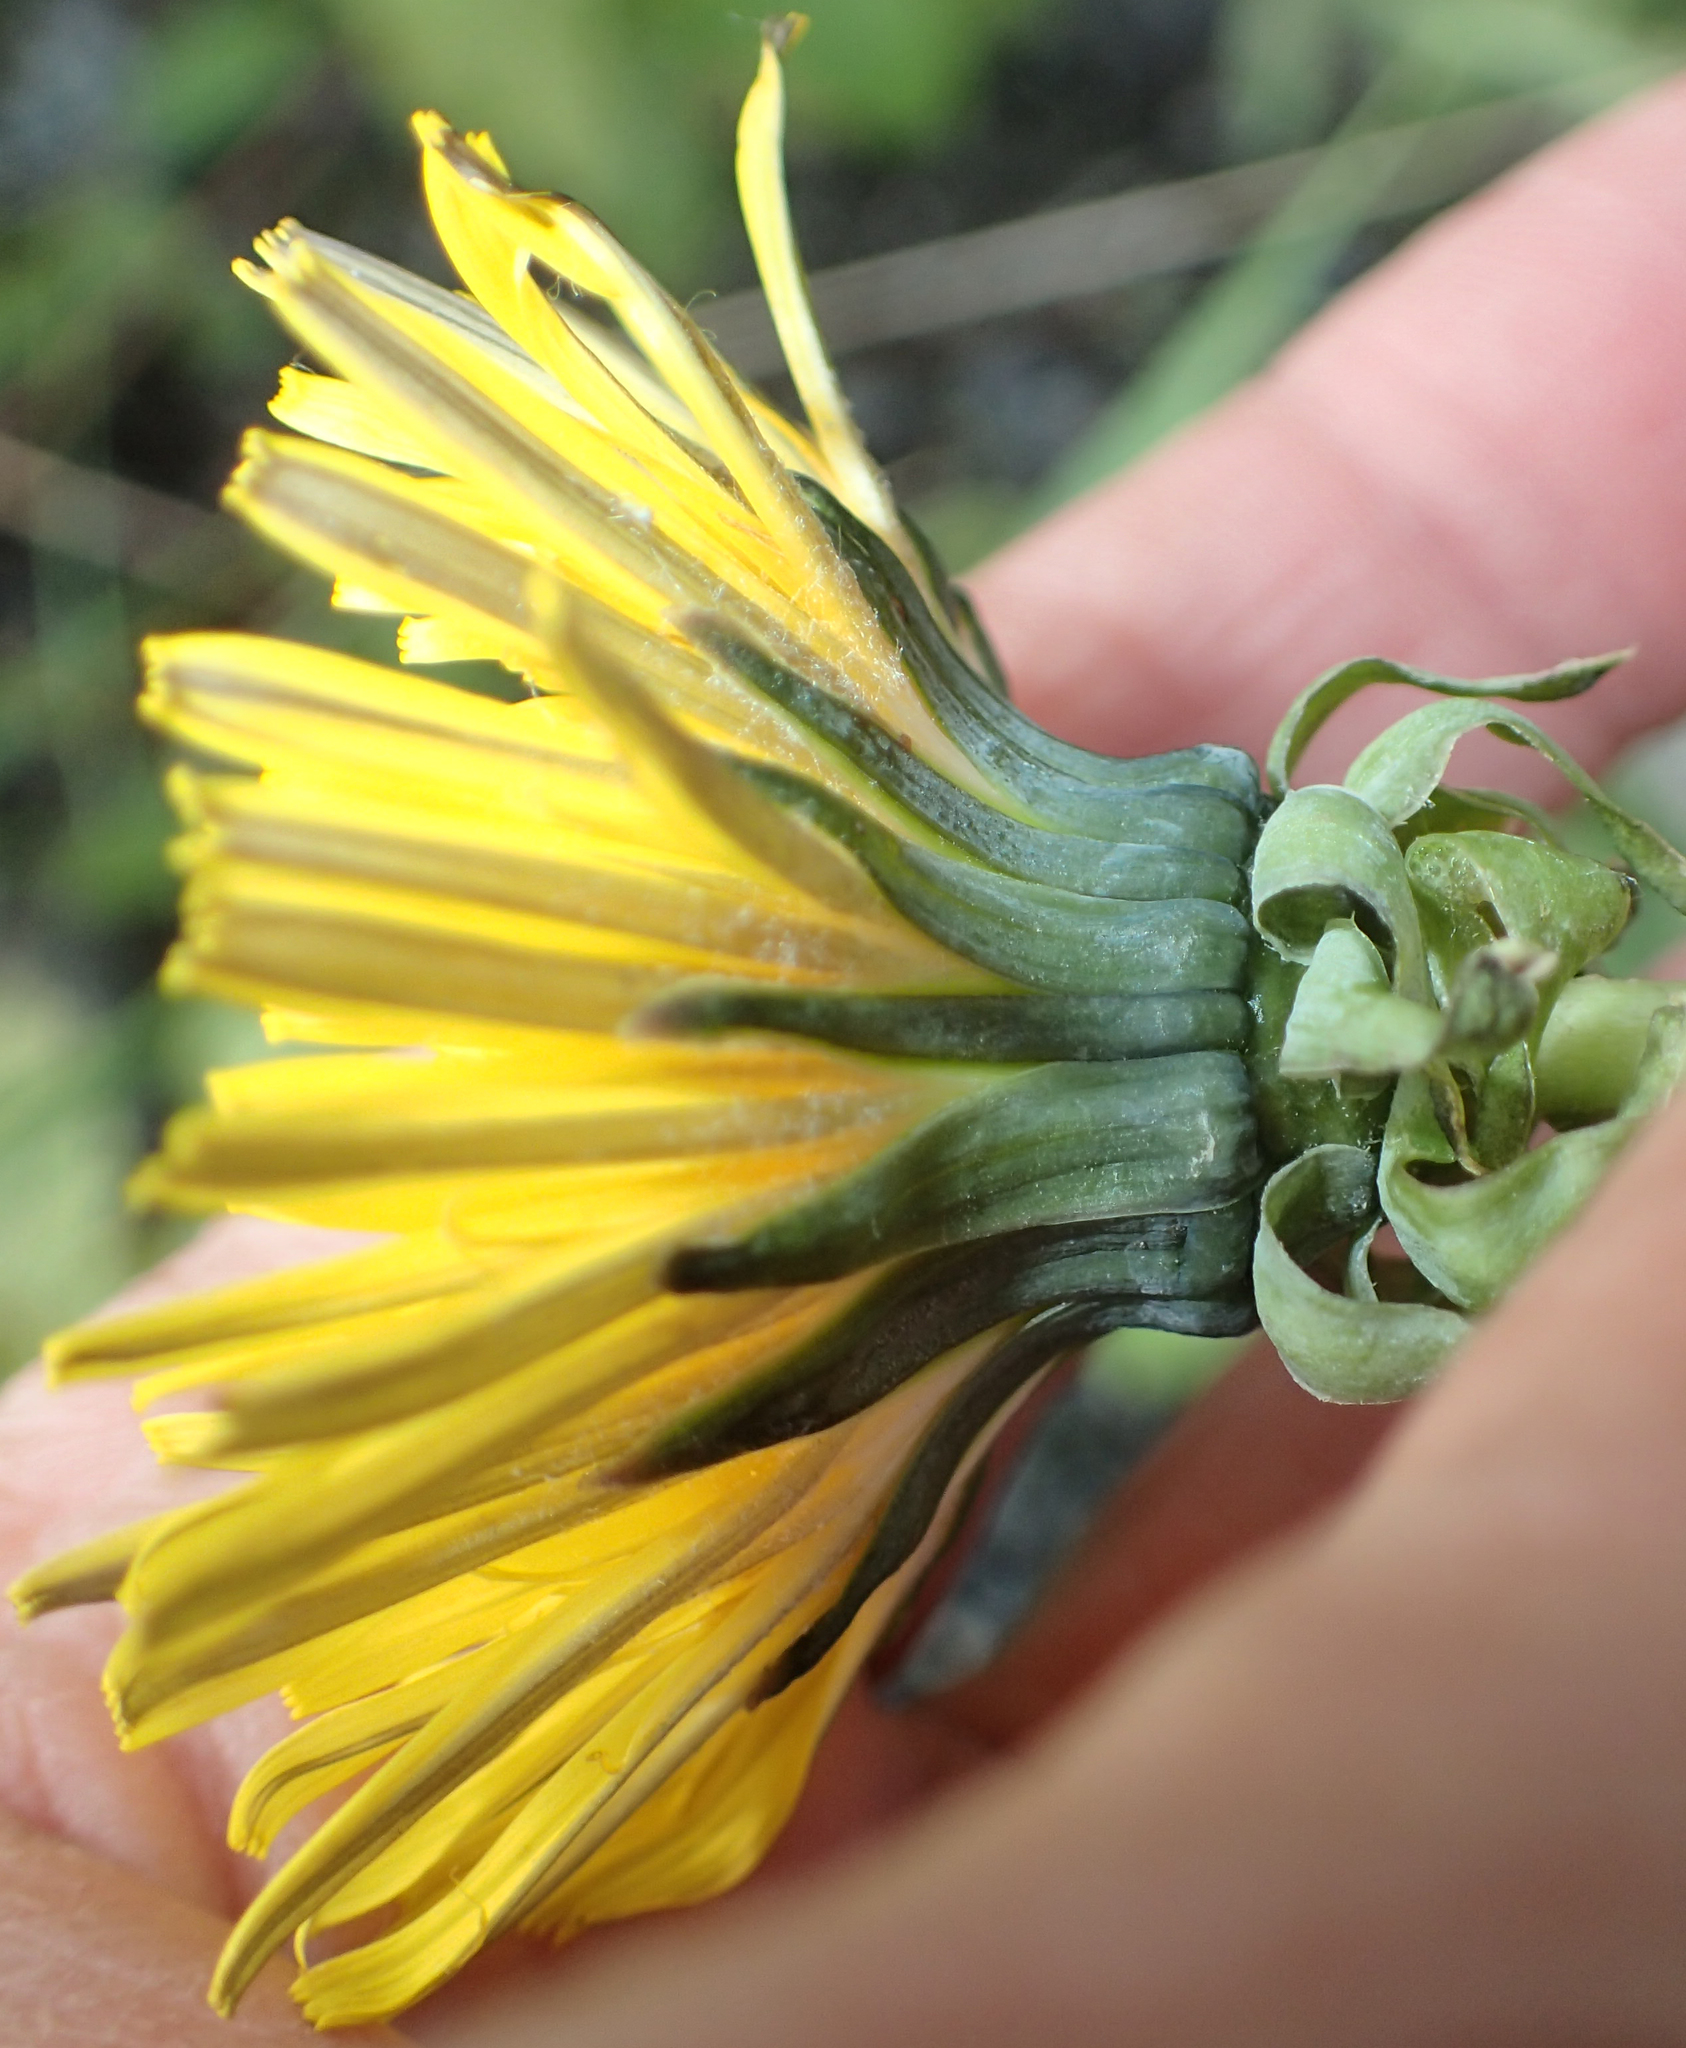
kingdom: Plantae
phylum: Tracheophyta
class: Magnoliopsida
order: Asterales
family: Asteraceae
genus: Taraxacum
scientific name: Taraxacum officinale
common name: Common dandelion
